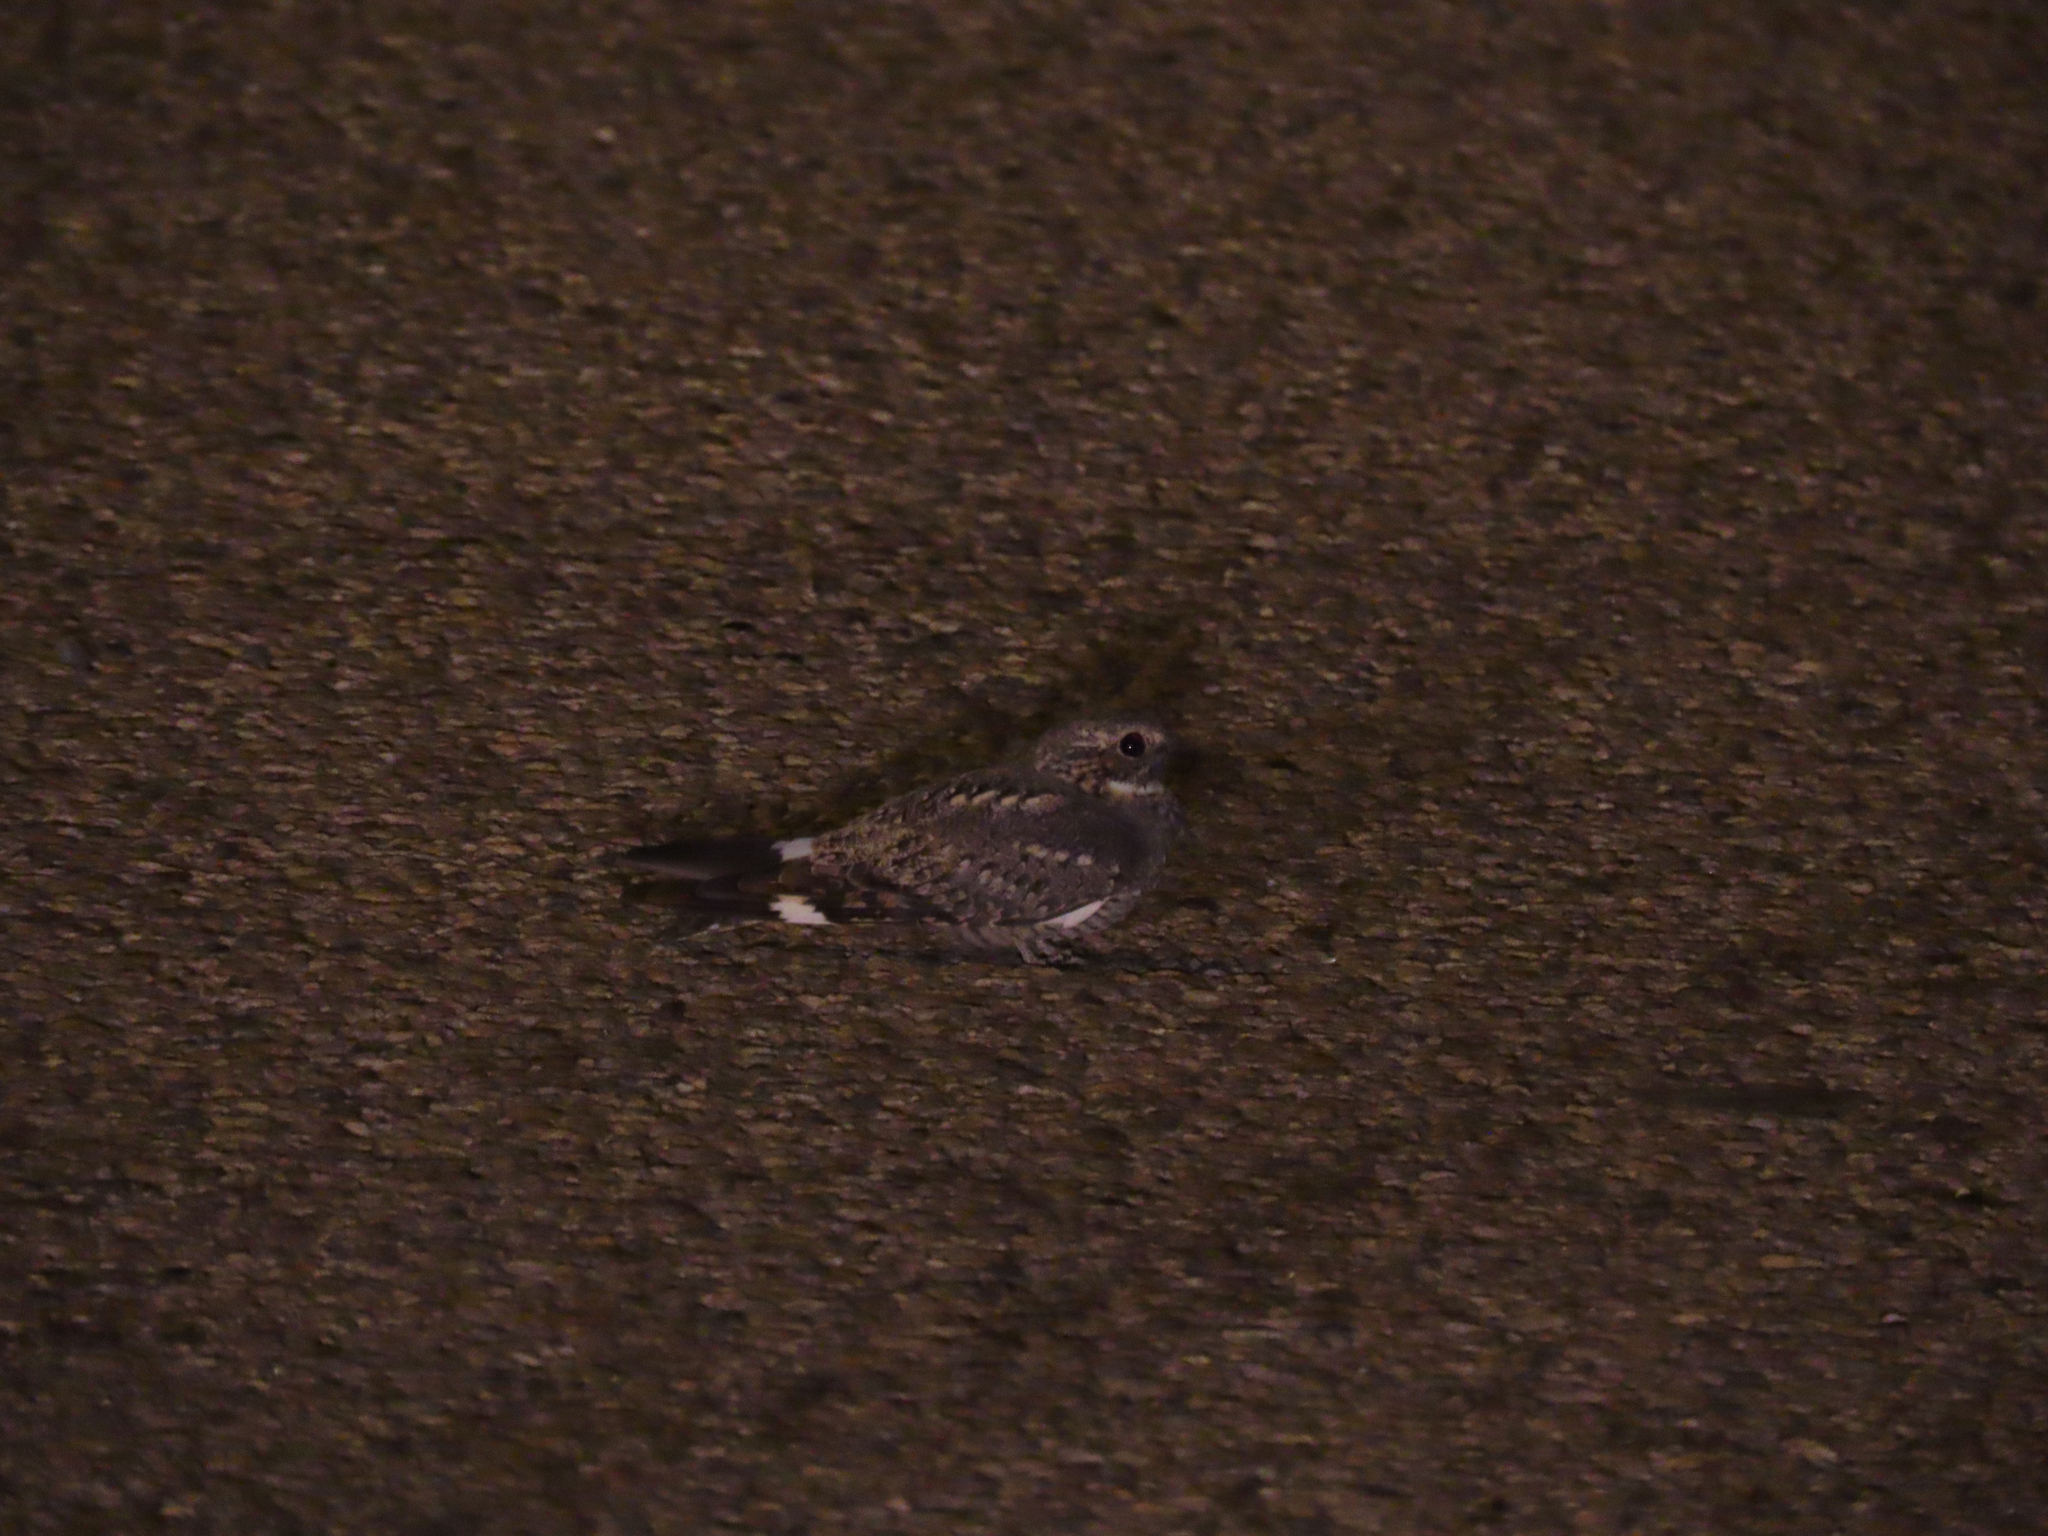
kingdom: Animalia
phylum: Chordata
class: Aves
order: Caprimulgiformes
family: Caprimulgidae
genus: Chordeiles
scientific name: Chordeiles acutipennis
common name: Lesser nighthawk
